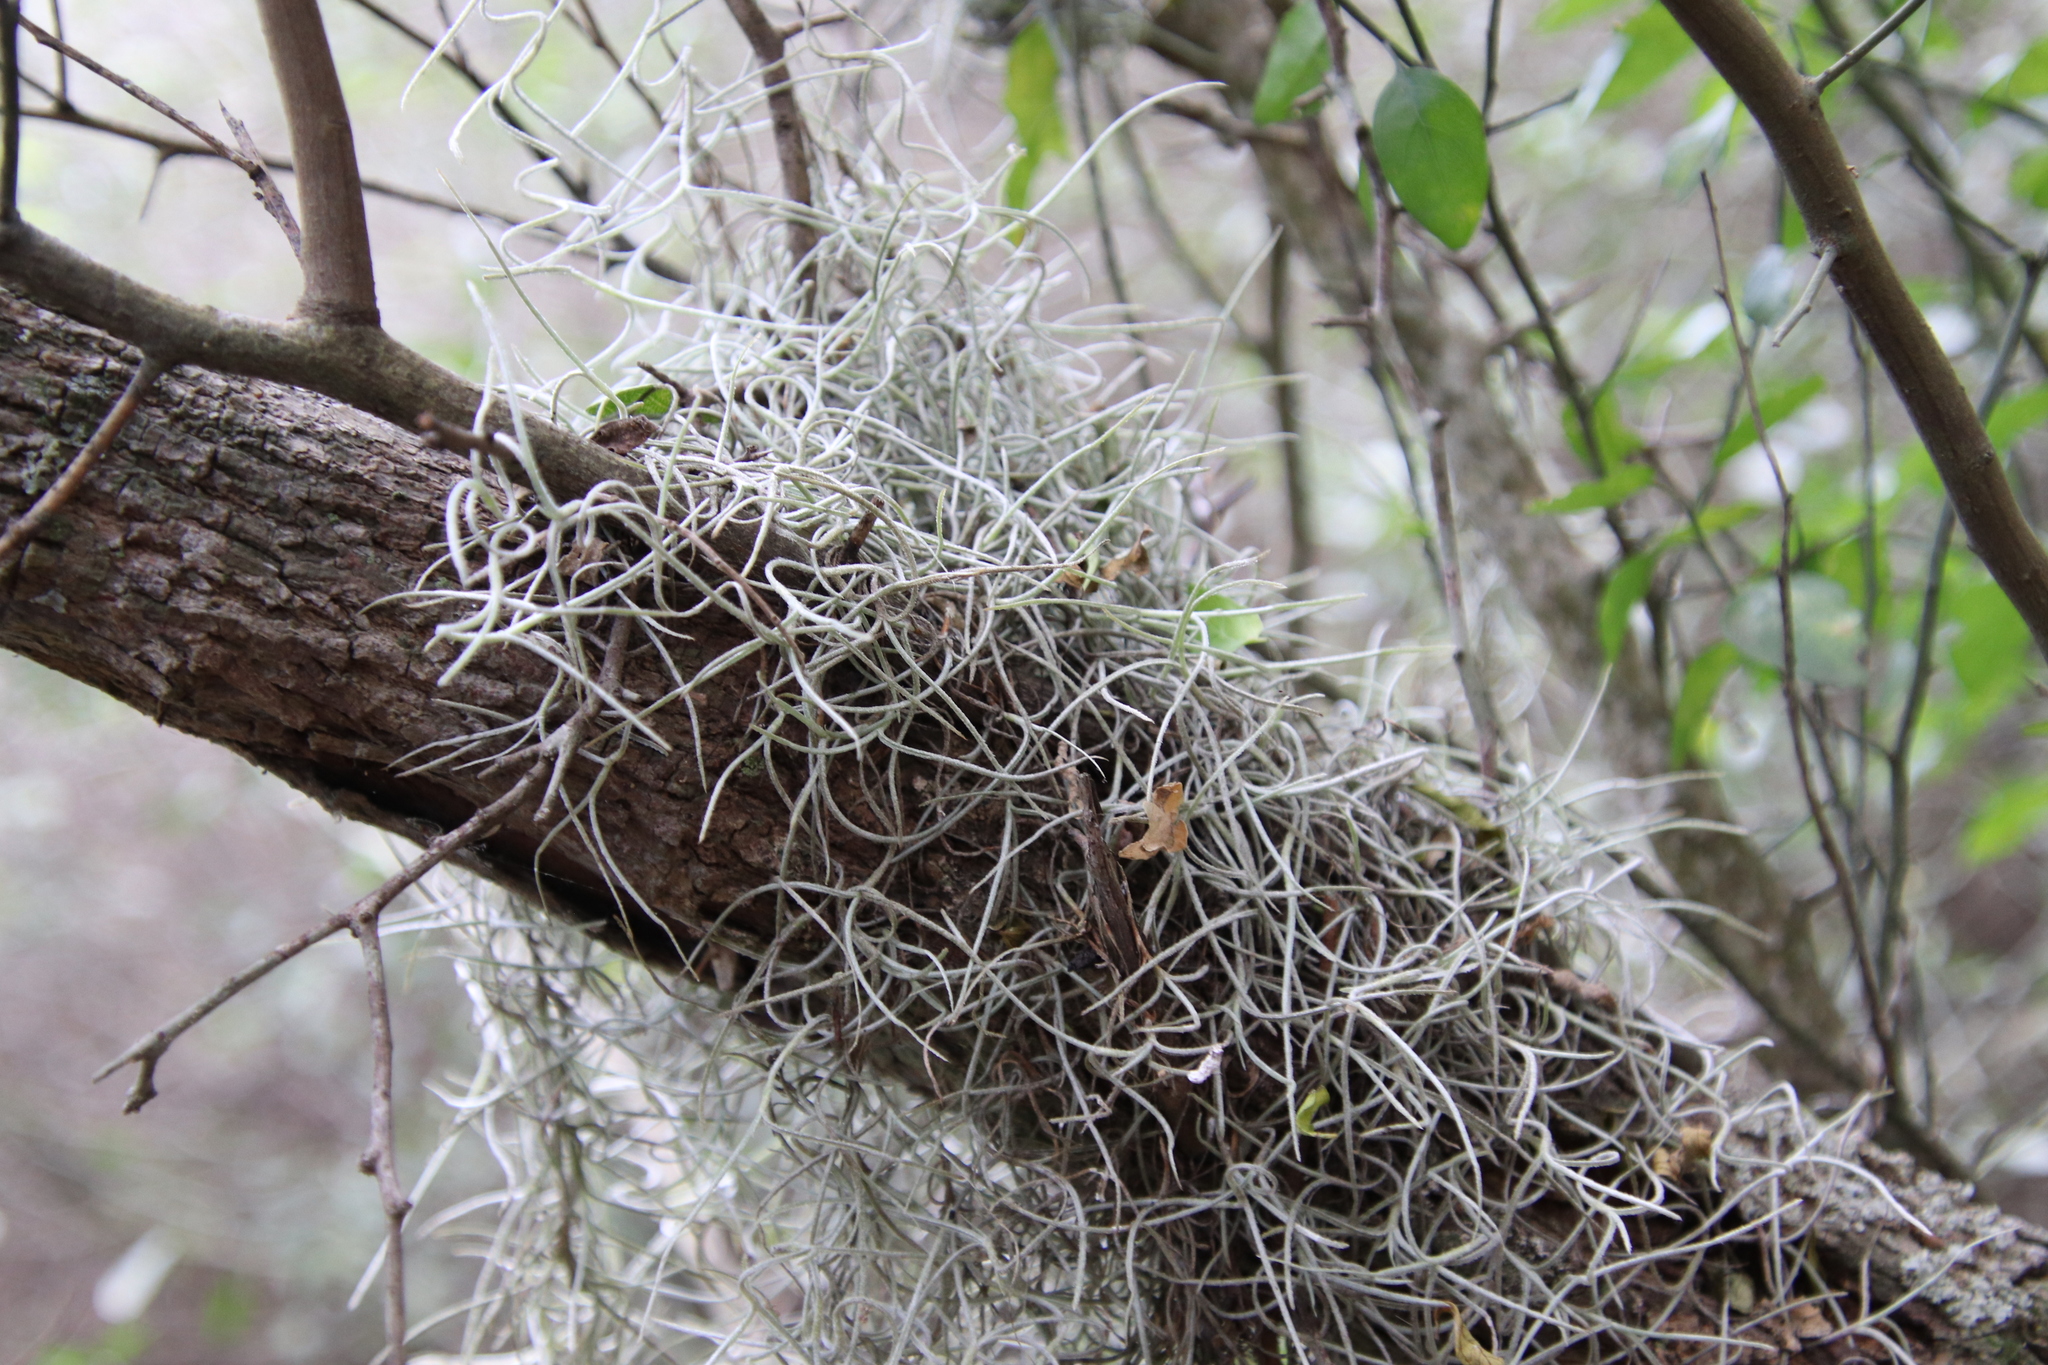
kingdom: Plantae
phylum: Tracheophyta
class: Liliopsida
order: Poales
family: Bromeliaceae
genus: Tillandsia
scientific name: Tillandsia usneoides
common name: Spanish moss
